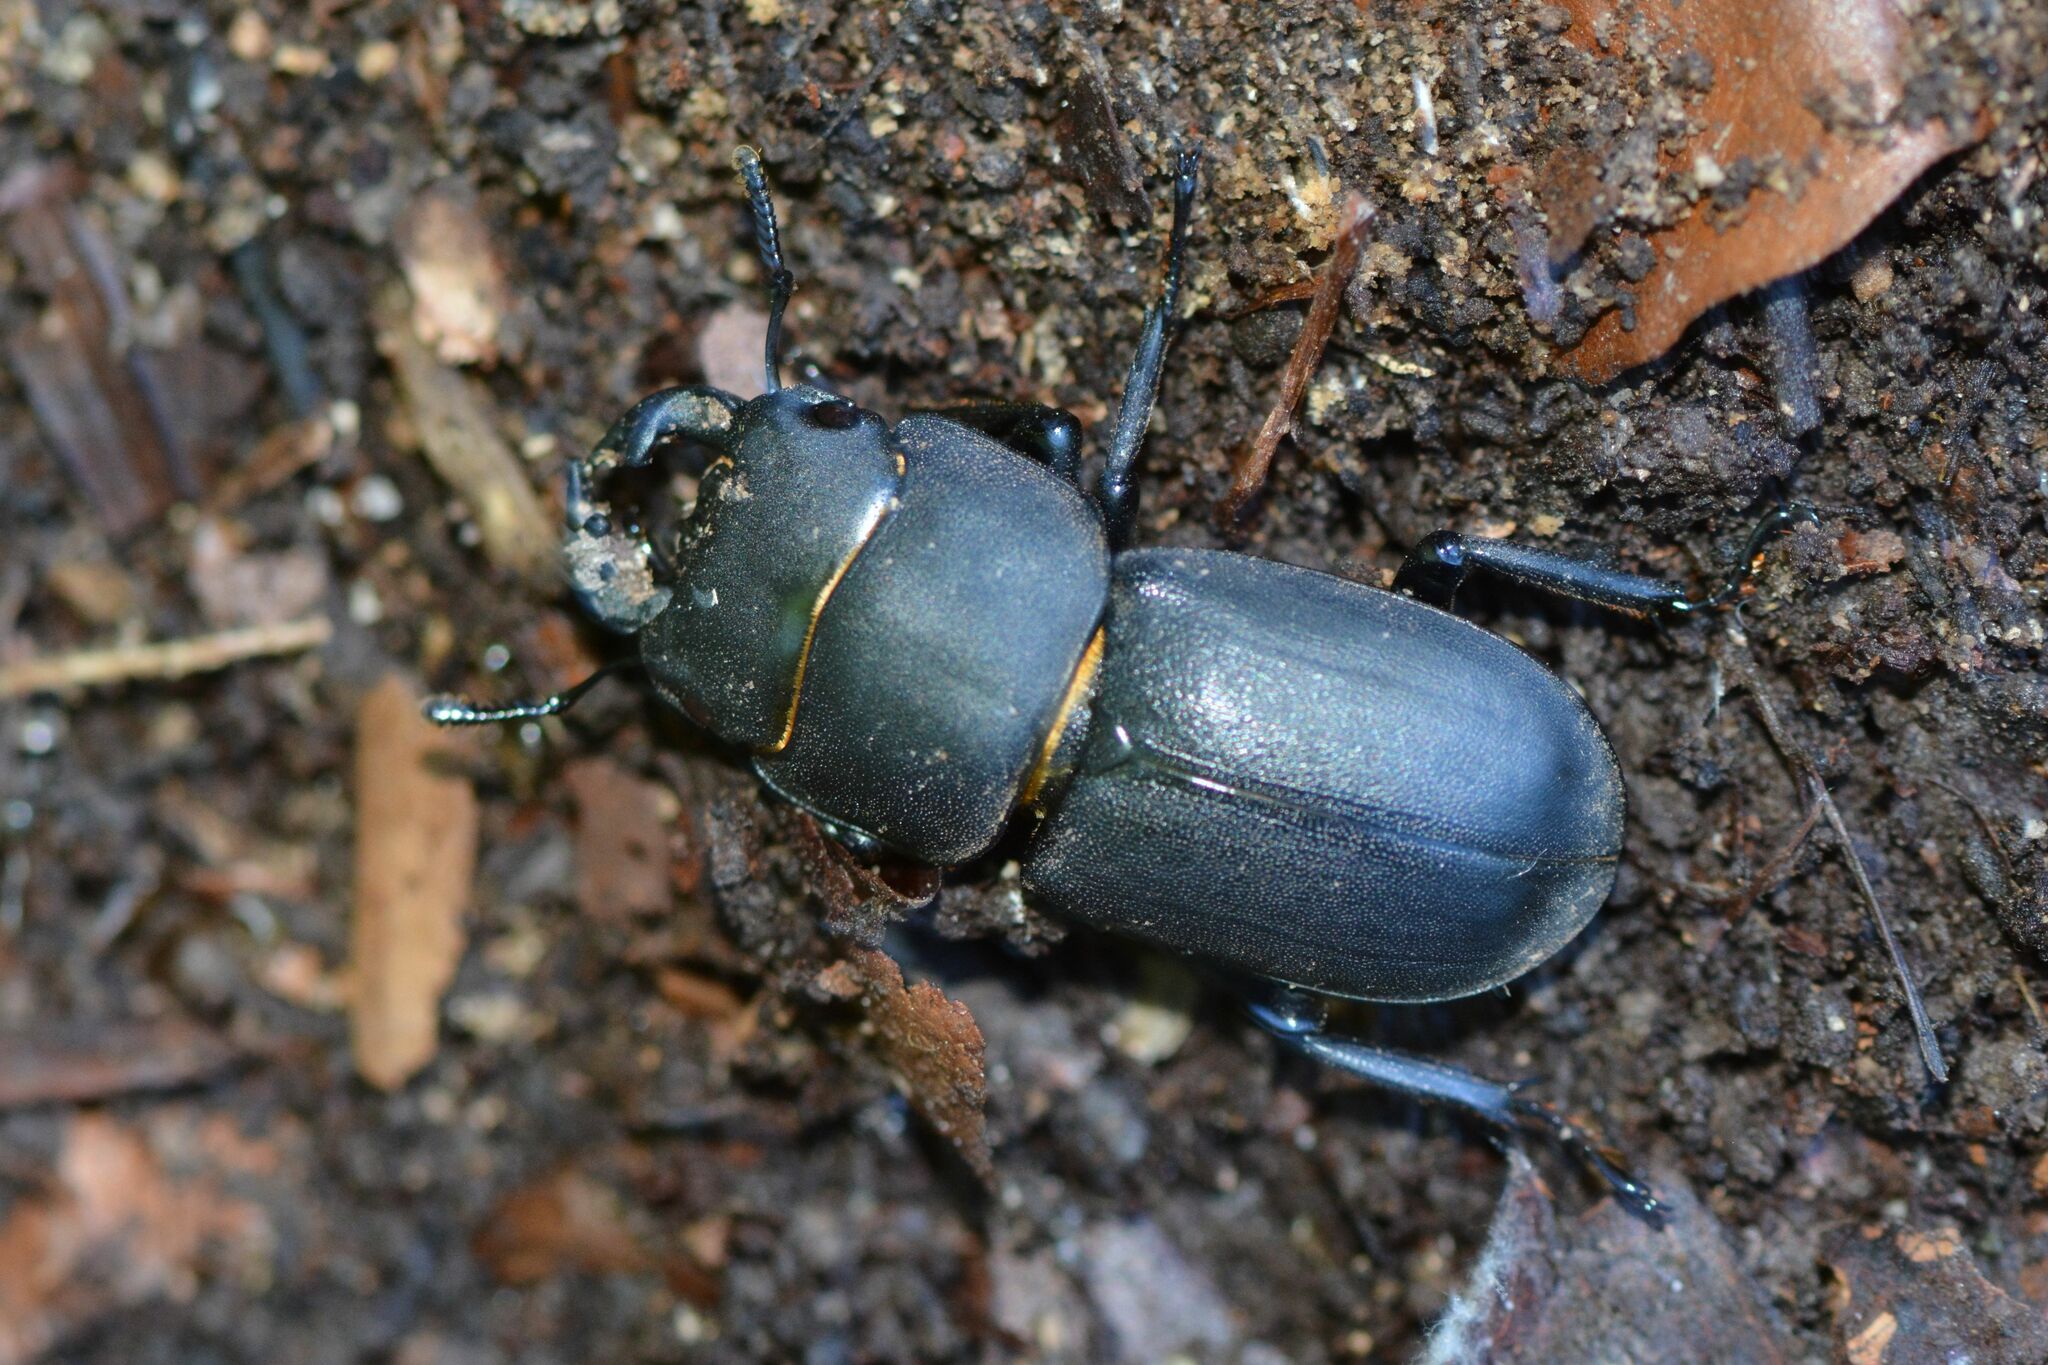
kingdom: Animalia
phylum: Arthropoda
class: Insecta
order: Coleoptera
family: Lucanidae
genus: Dorcus
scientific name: Dorcus parallelipipedus
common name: Lesser stag beetle
